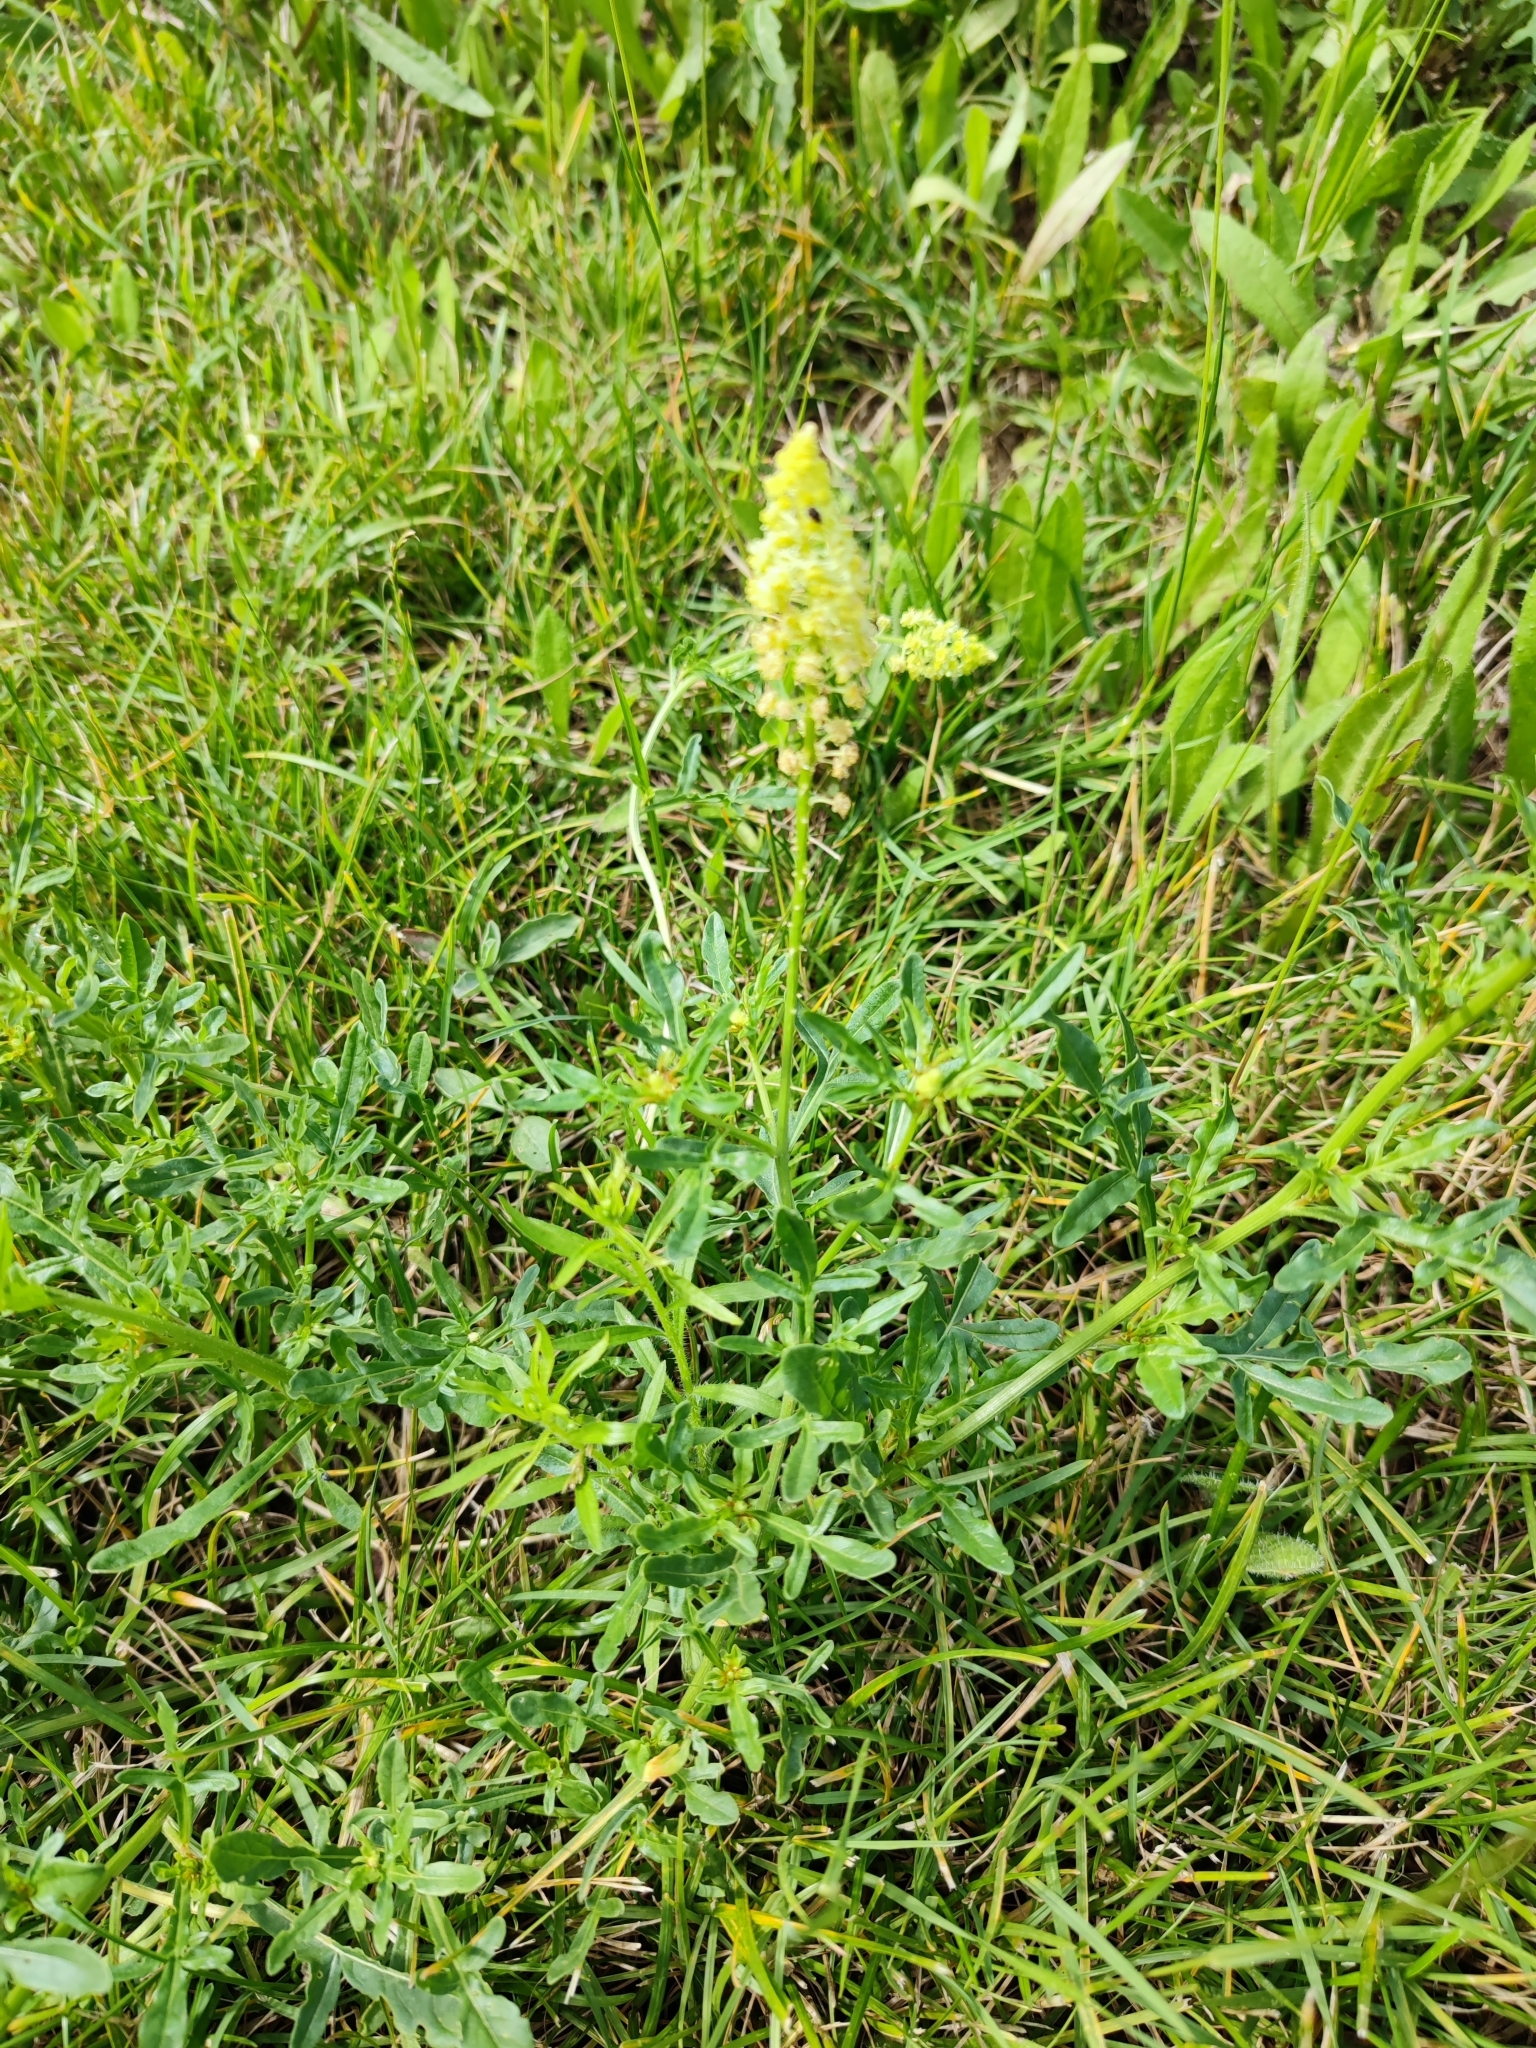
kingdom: Plantae
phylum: Tracheophyta
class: Magnoliopsida
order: Brassicales
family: Resedaceae
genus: Reseda
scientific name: Reseda lutea
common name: Wild mignonette
